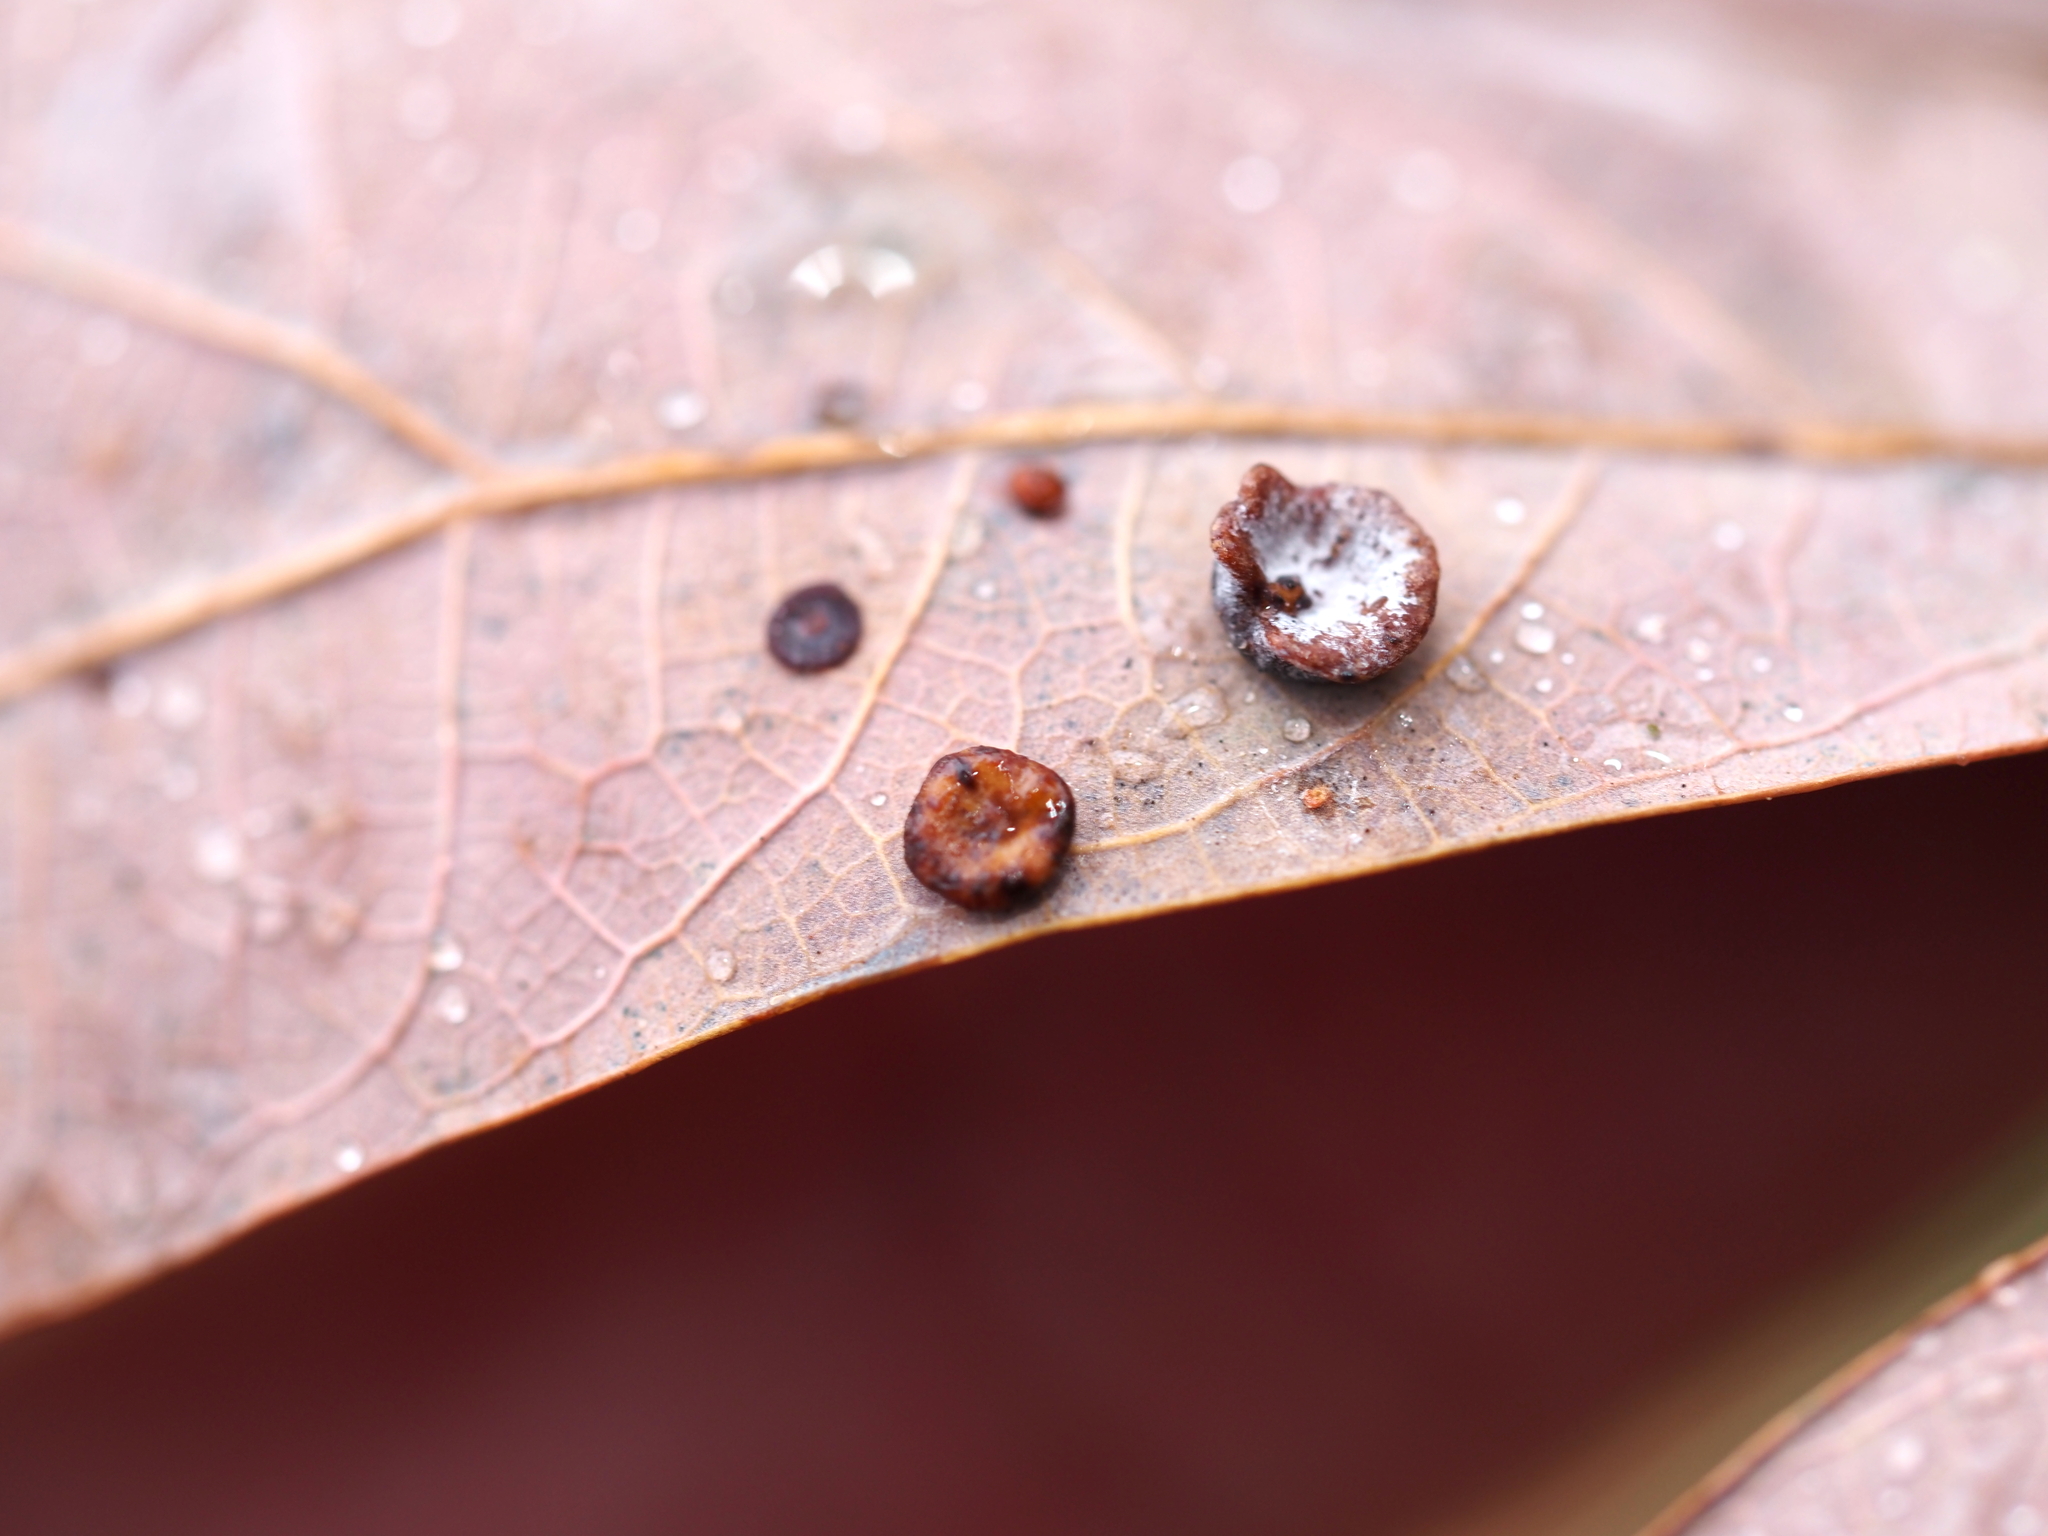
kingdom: Animalia
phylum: Arthropoda
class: Insecta
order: Hymenoptera
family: Cynipidae
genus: Phylloteras
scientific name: Phylloteras poculum
